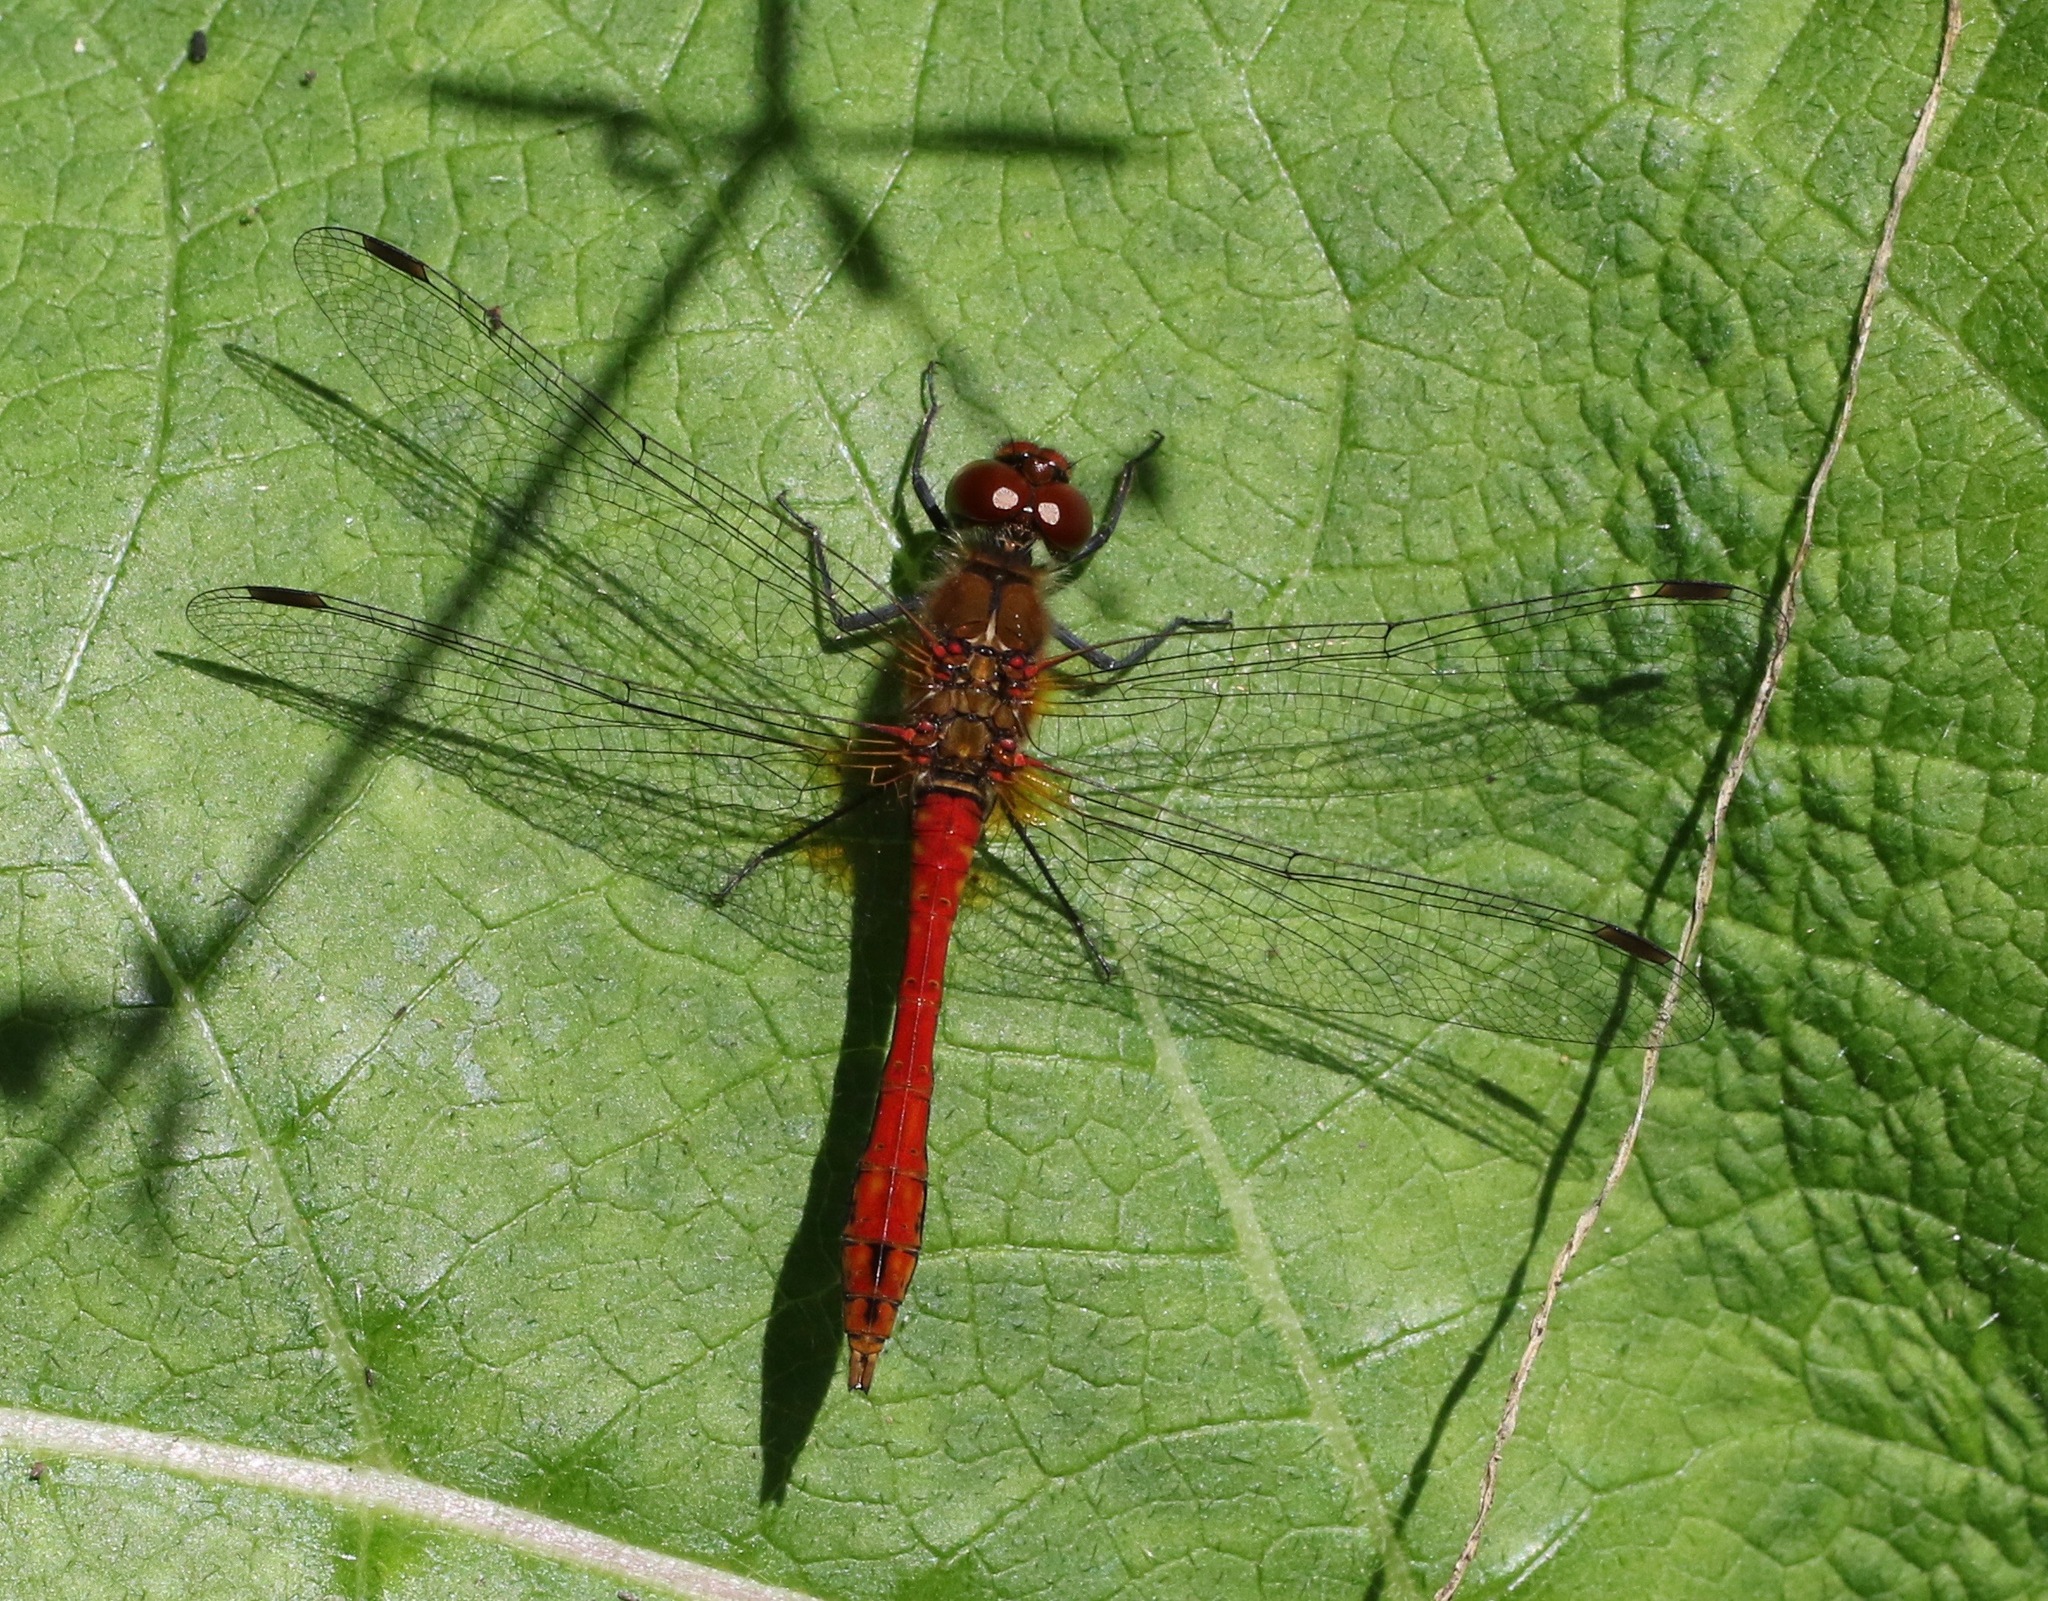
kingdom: Animalia
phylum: Arthropoda
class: Insecta
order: Odonata
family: Libellulidae
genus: Sympetrum
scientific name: Sympetrum sanguineum
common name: Ruddy darter
